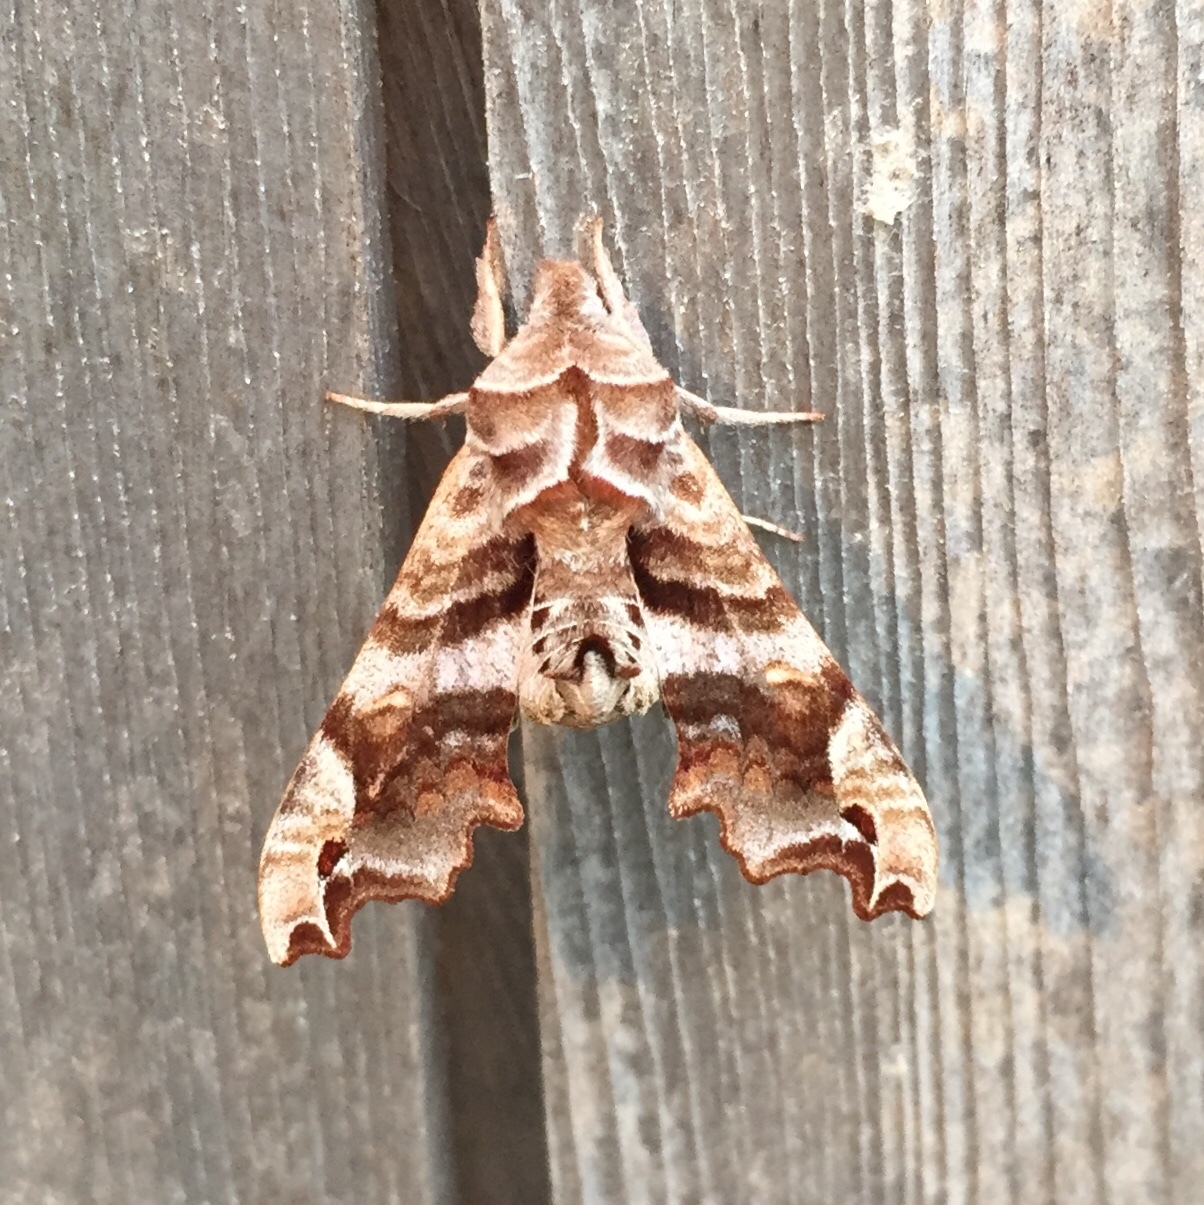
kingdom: Animalia
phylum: Arthropoda
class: Insecta
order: Lepidoptera
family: Sphingidae
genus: Deidamia
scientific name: Deidamia inscriptum
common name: Lettered sphinx
